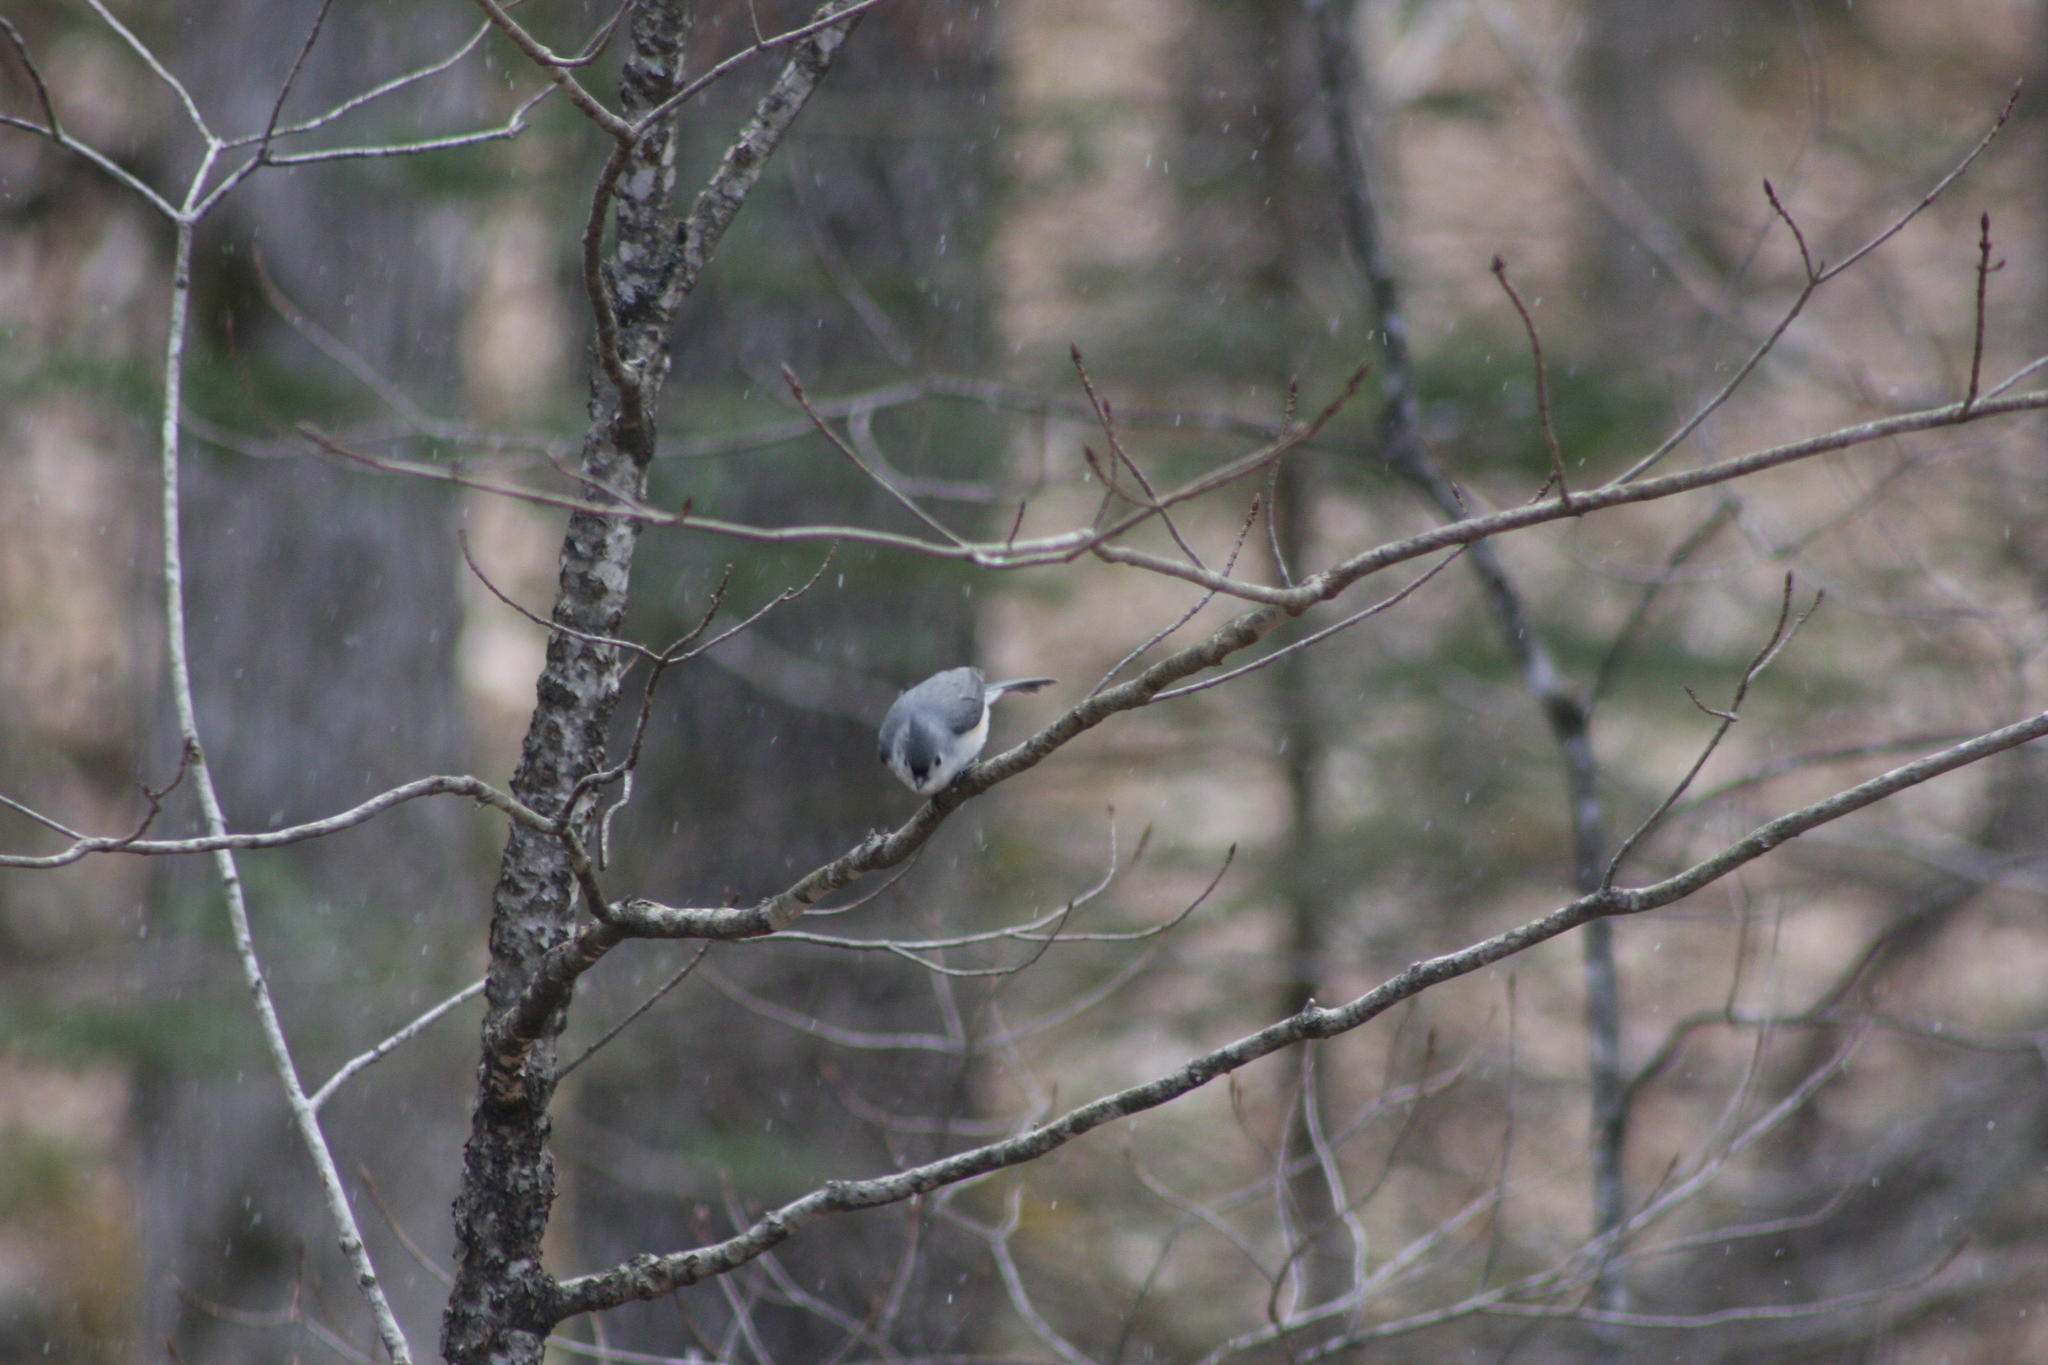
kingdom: Animalia
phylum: Chordata
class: Aves
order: Passeriformes
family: Paridae
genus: Baeolophus
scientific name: Baeolophus bicolor
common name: Tufted titmouse
